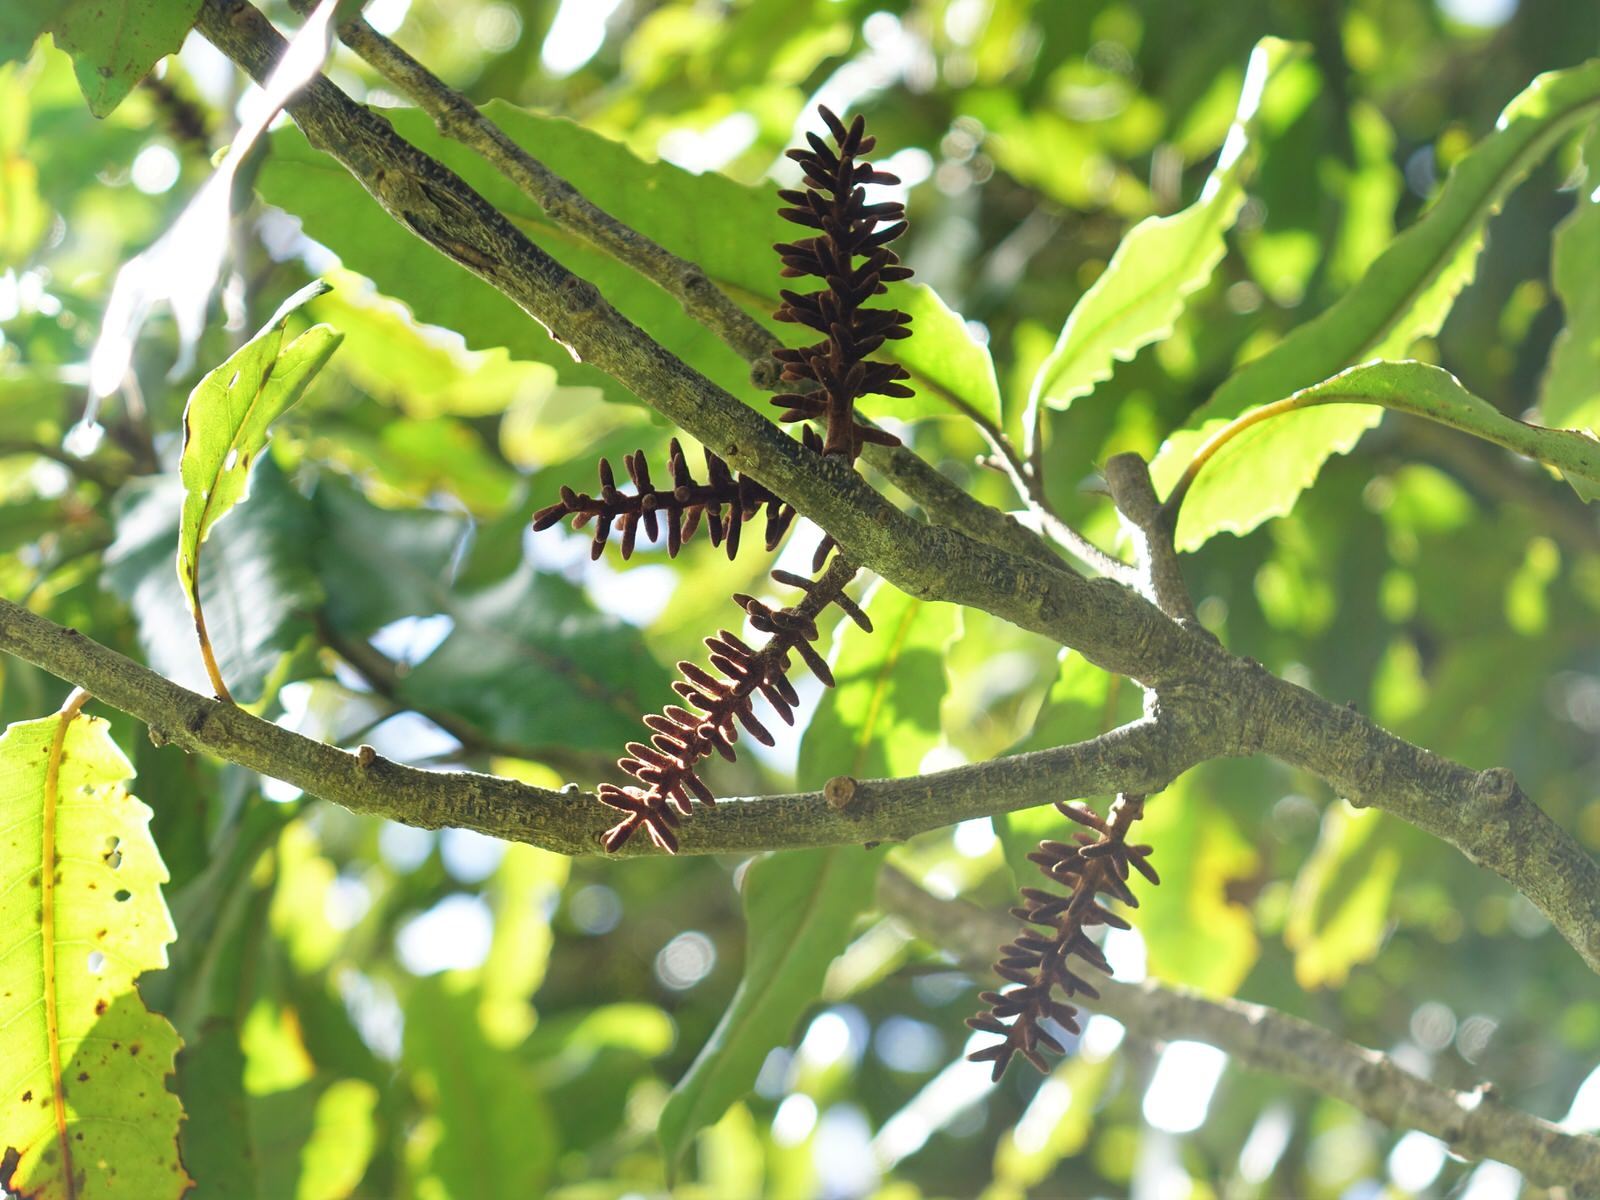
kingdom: Plantae
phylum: Tracheophyta
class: Magnoliopsida
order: Proteales
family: Proteaceae
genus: Knightia
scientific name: Knightia excelsa
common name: New zealand-honeysuckle
